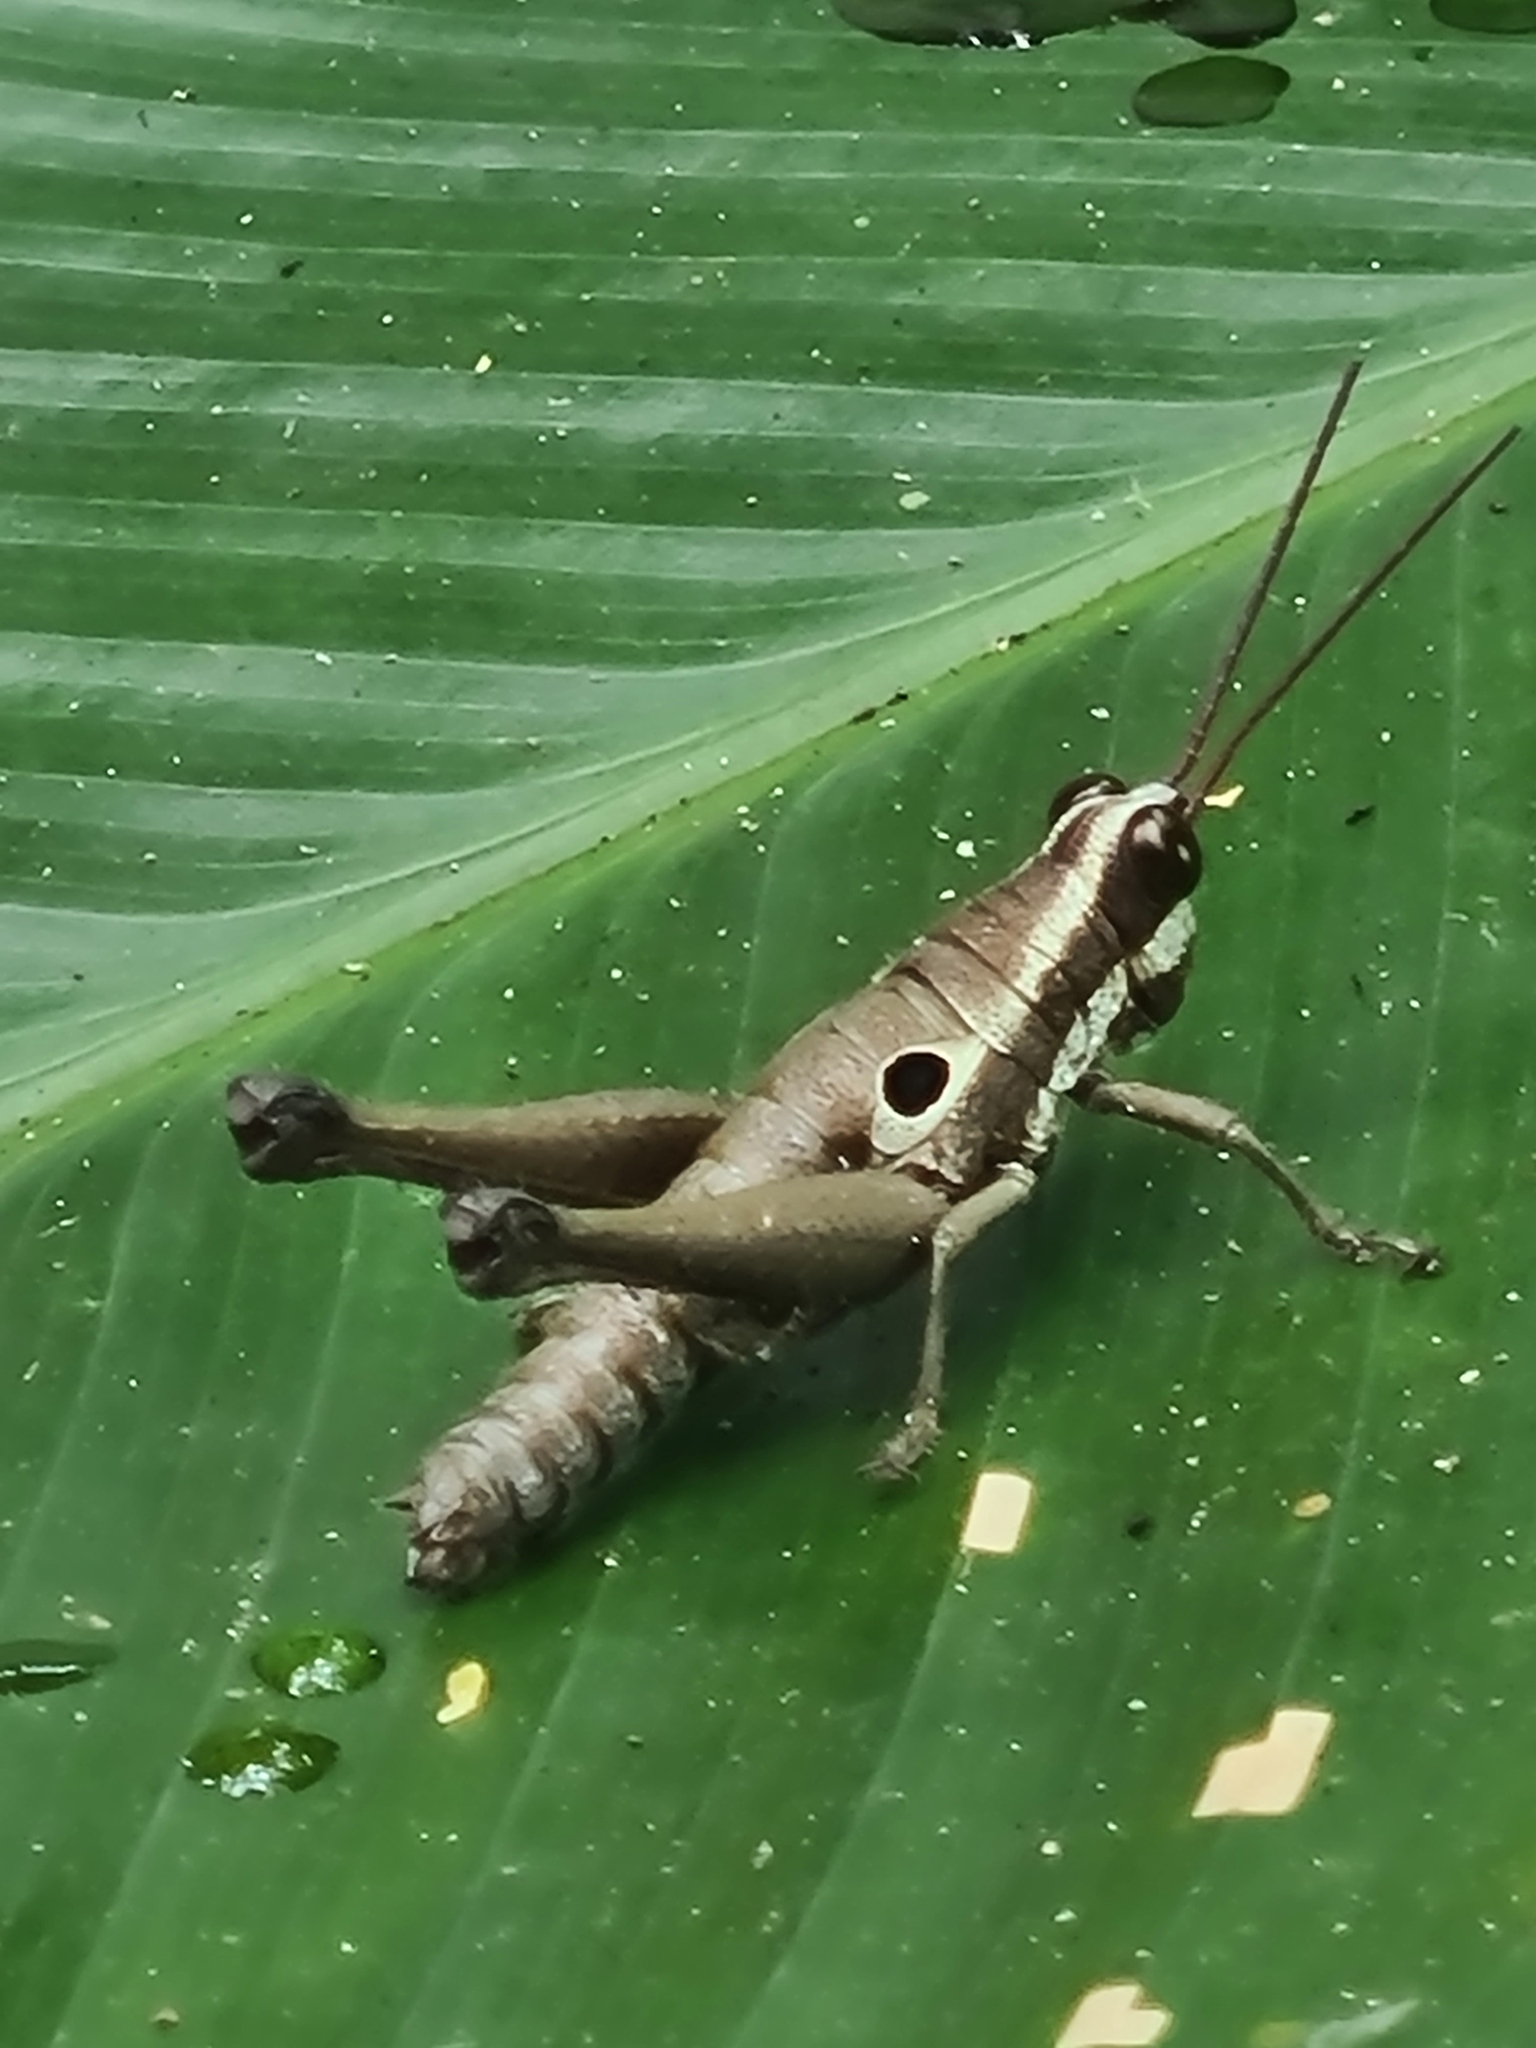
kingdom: Animalia
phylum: Arthropoda
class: Insecta
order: Orthoptera
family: Acrididae
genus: Ommatolampis
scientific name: Ommatolampis perspicillata
